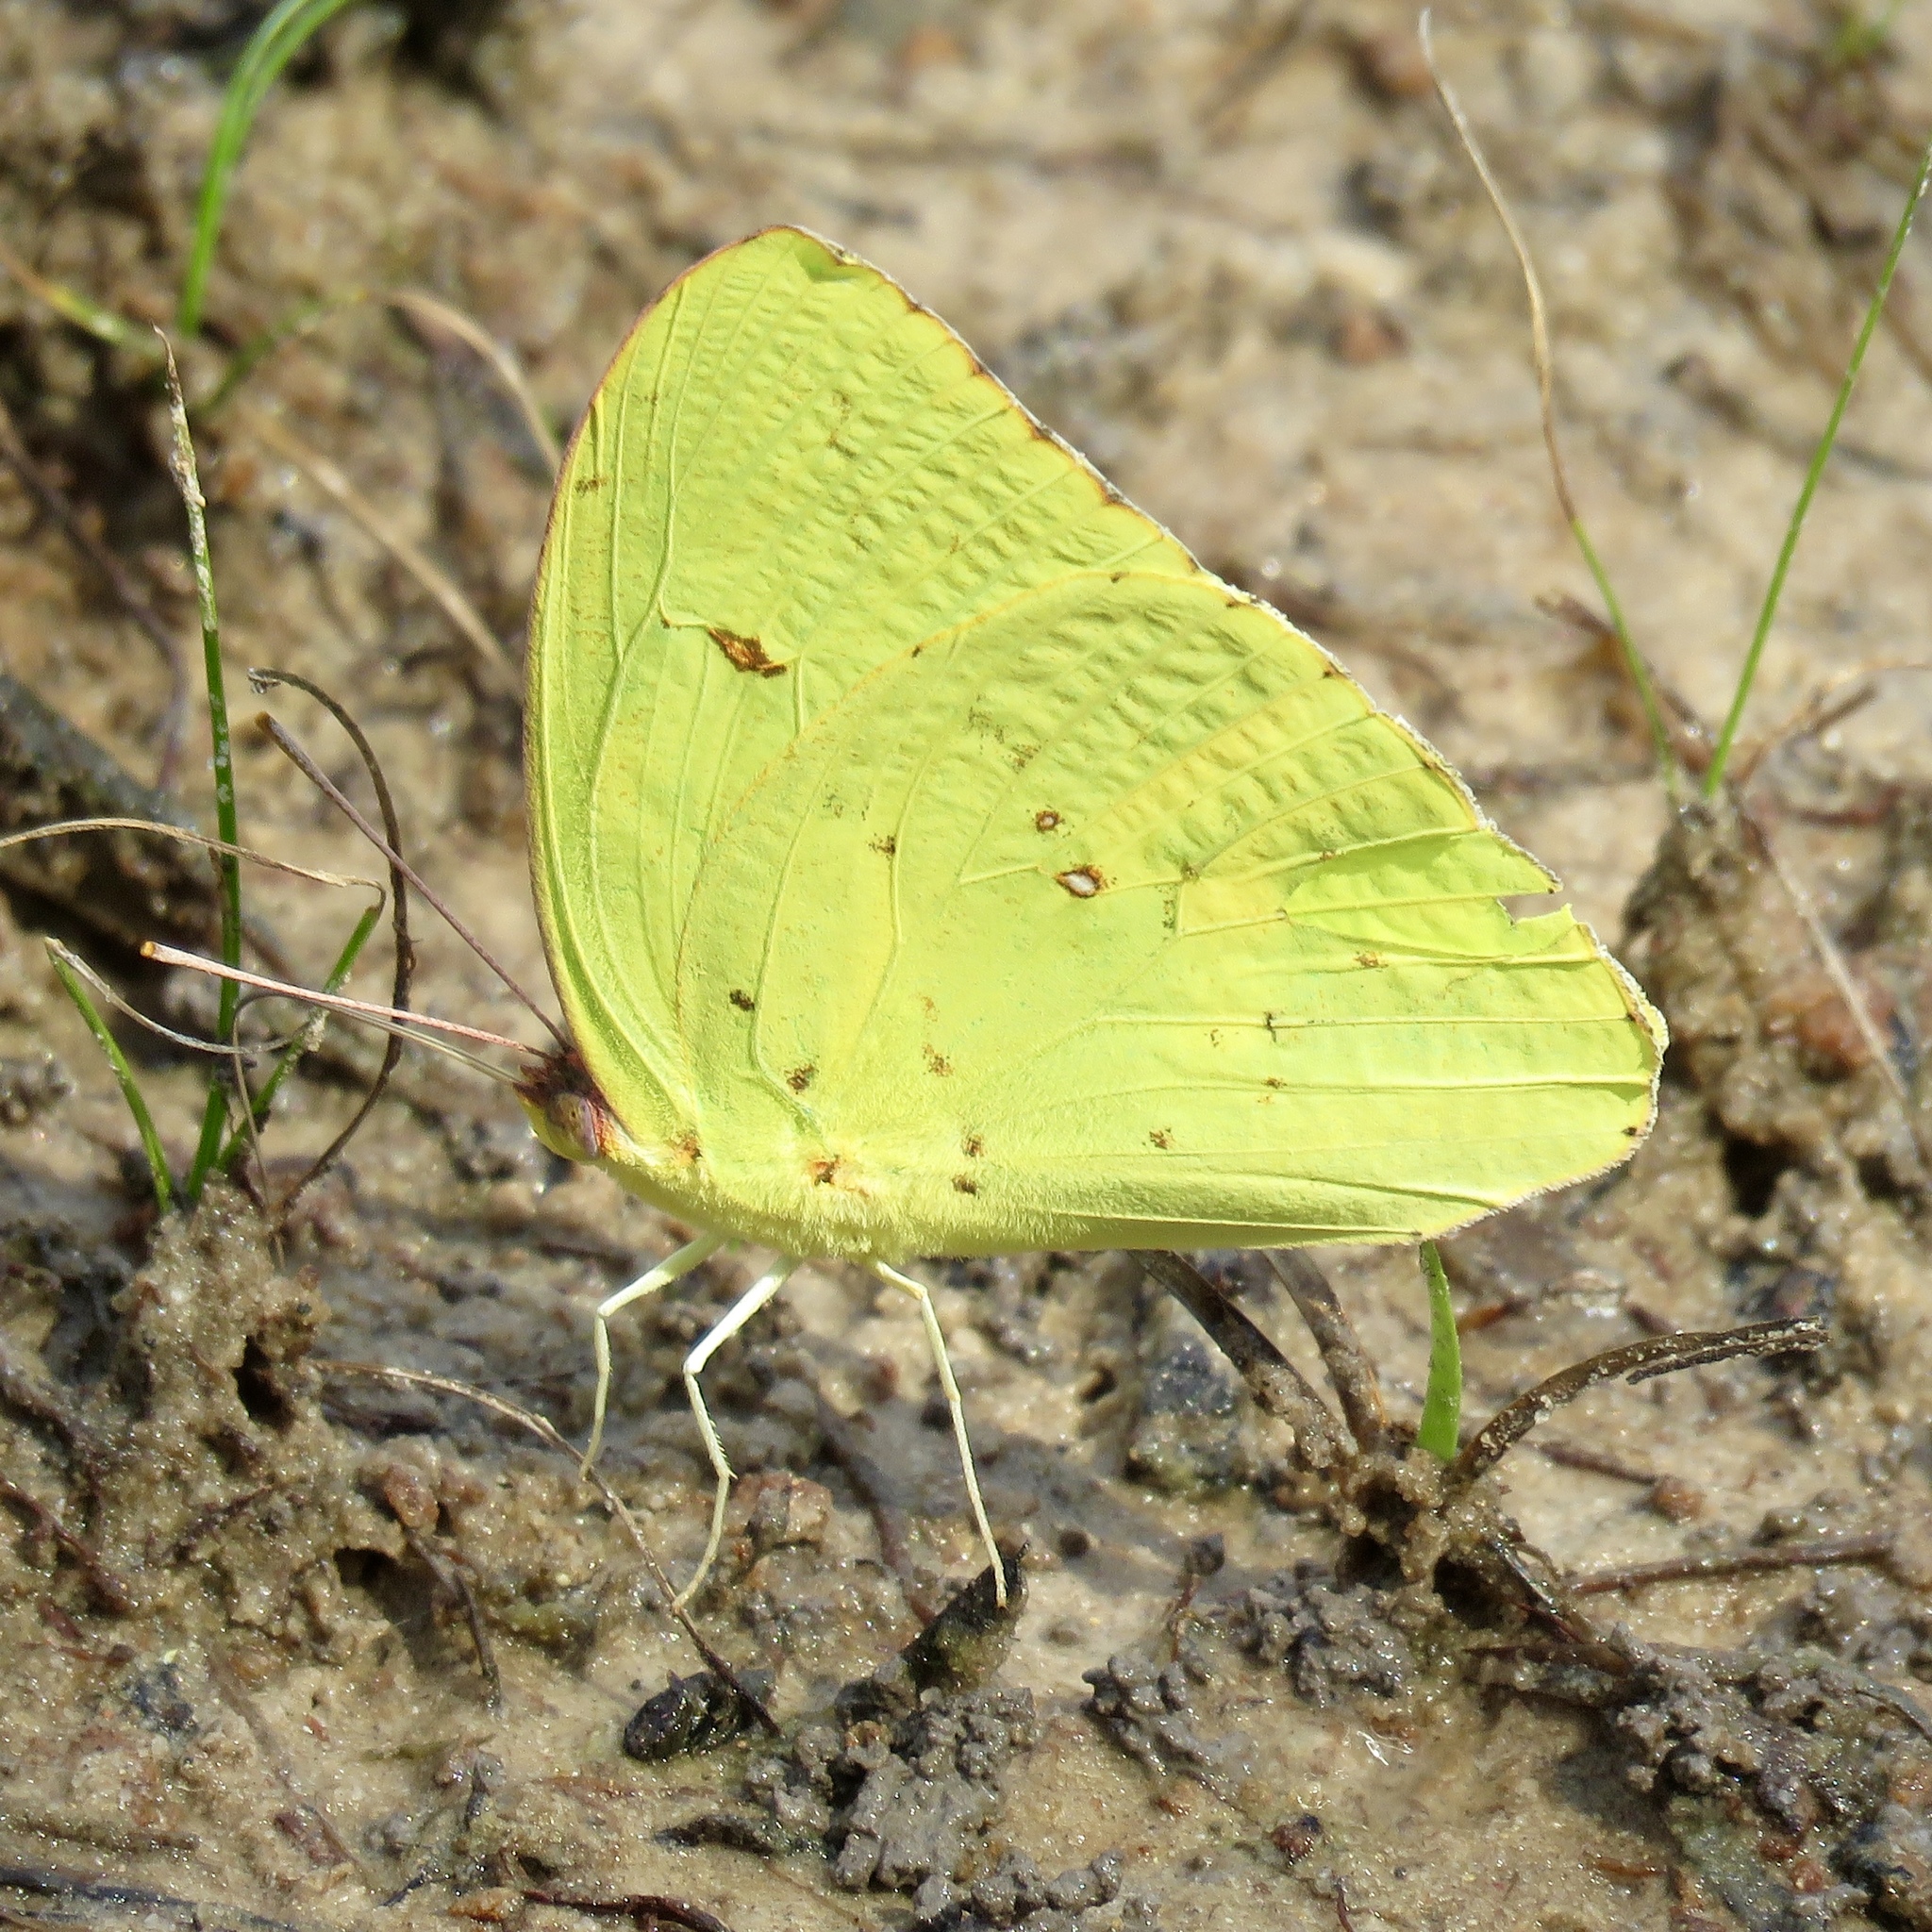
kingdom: Animalia
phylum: Arthropoda
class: Insecta
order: Lepidoptera
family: Pieridae
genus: Phoebis
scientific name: Phoebis sennae
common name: Cloudless sulphur
